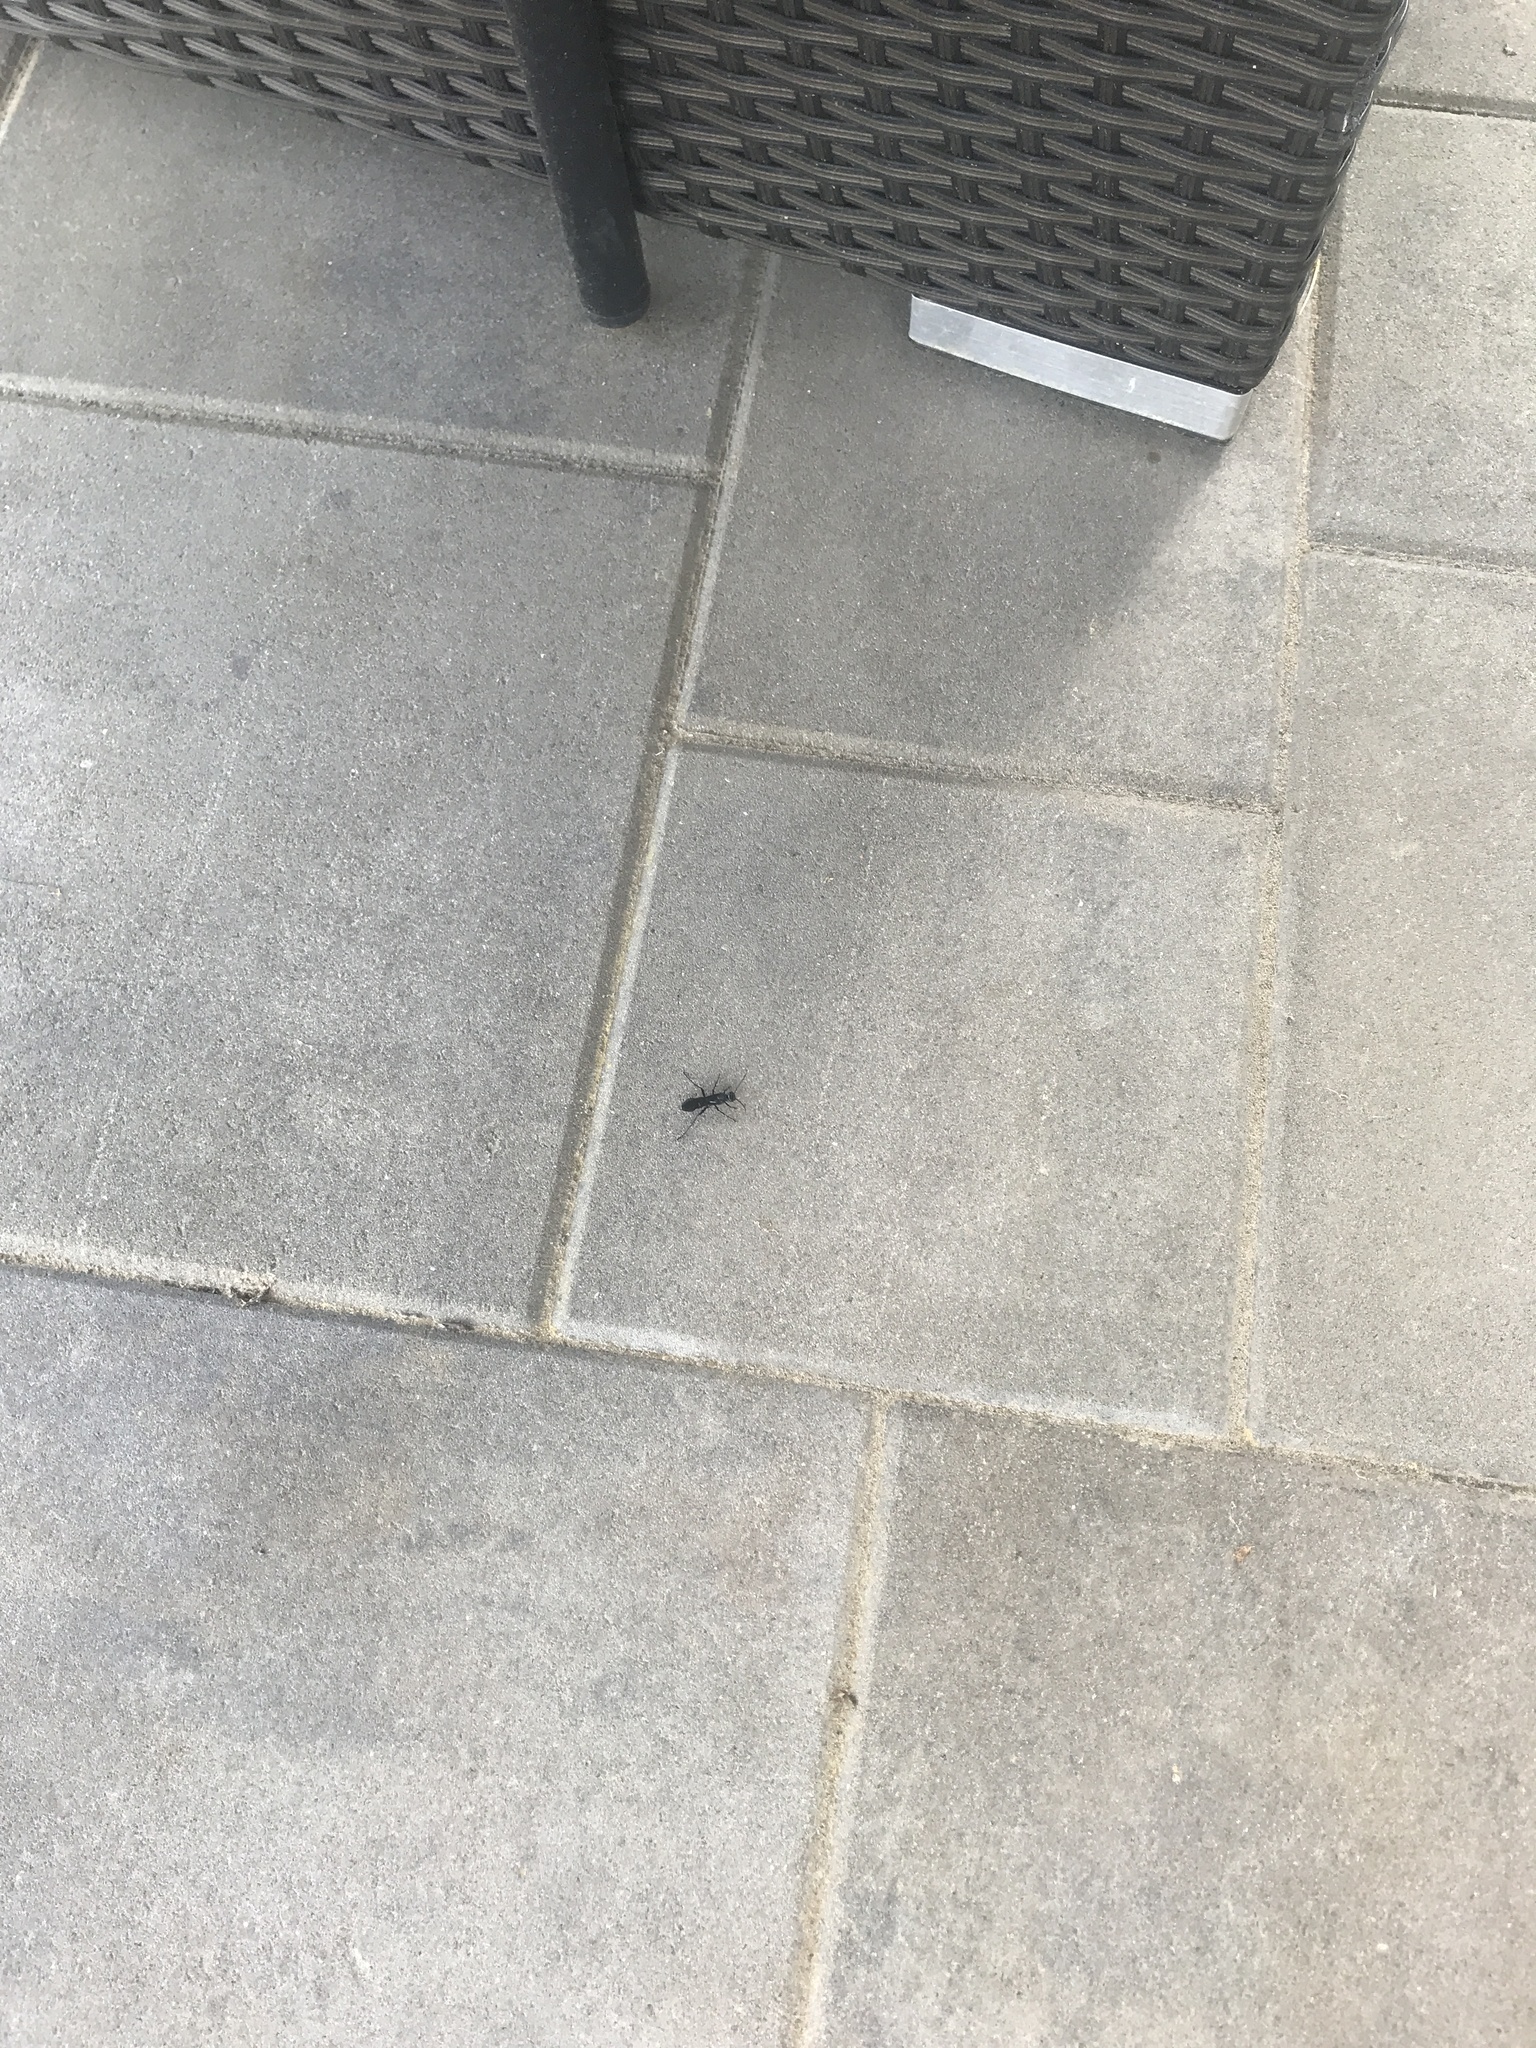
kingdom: Animalia
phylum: Arthropoda
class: Insecta
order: Hymenoptera
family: Sphecidae
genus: Chalybion
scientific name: Chalybion californicum
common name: Mud dauber
